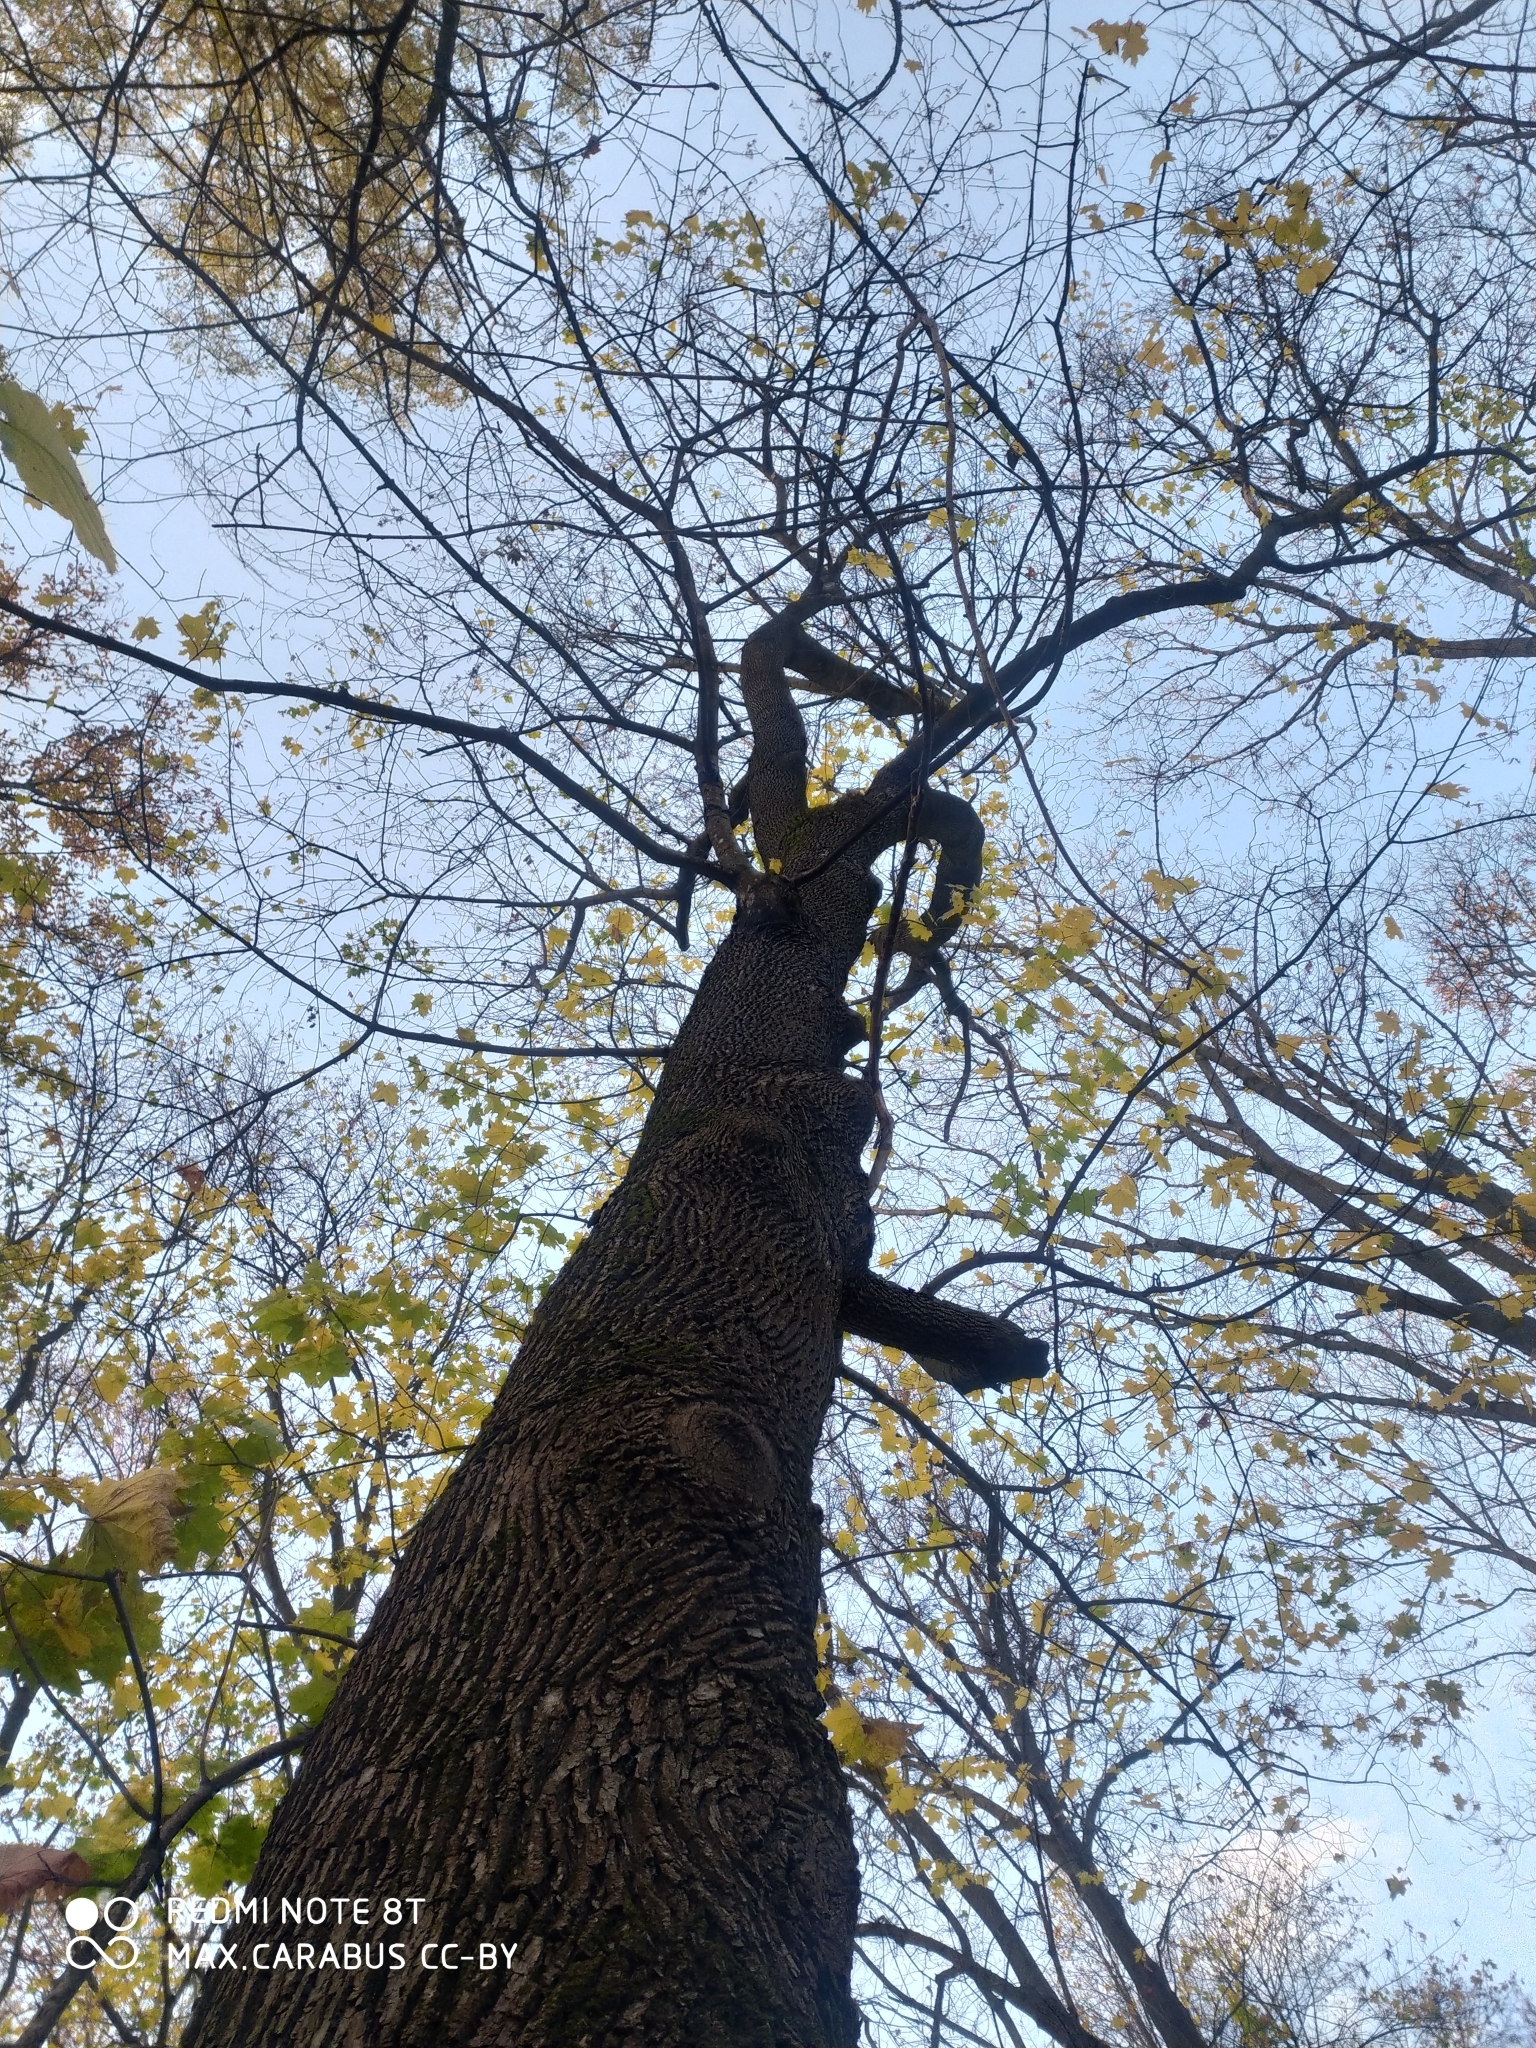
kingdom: Plantae
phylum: Tracheophyta
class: Magnoliopsida
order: Sapindales
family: Sapindaceae
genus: Acer
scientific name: Acer platanoides
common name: Norway maple
